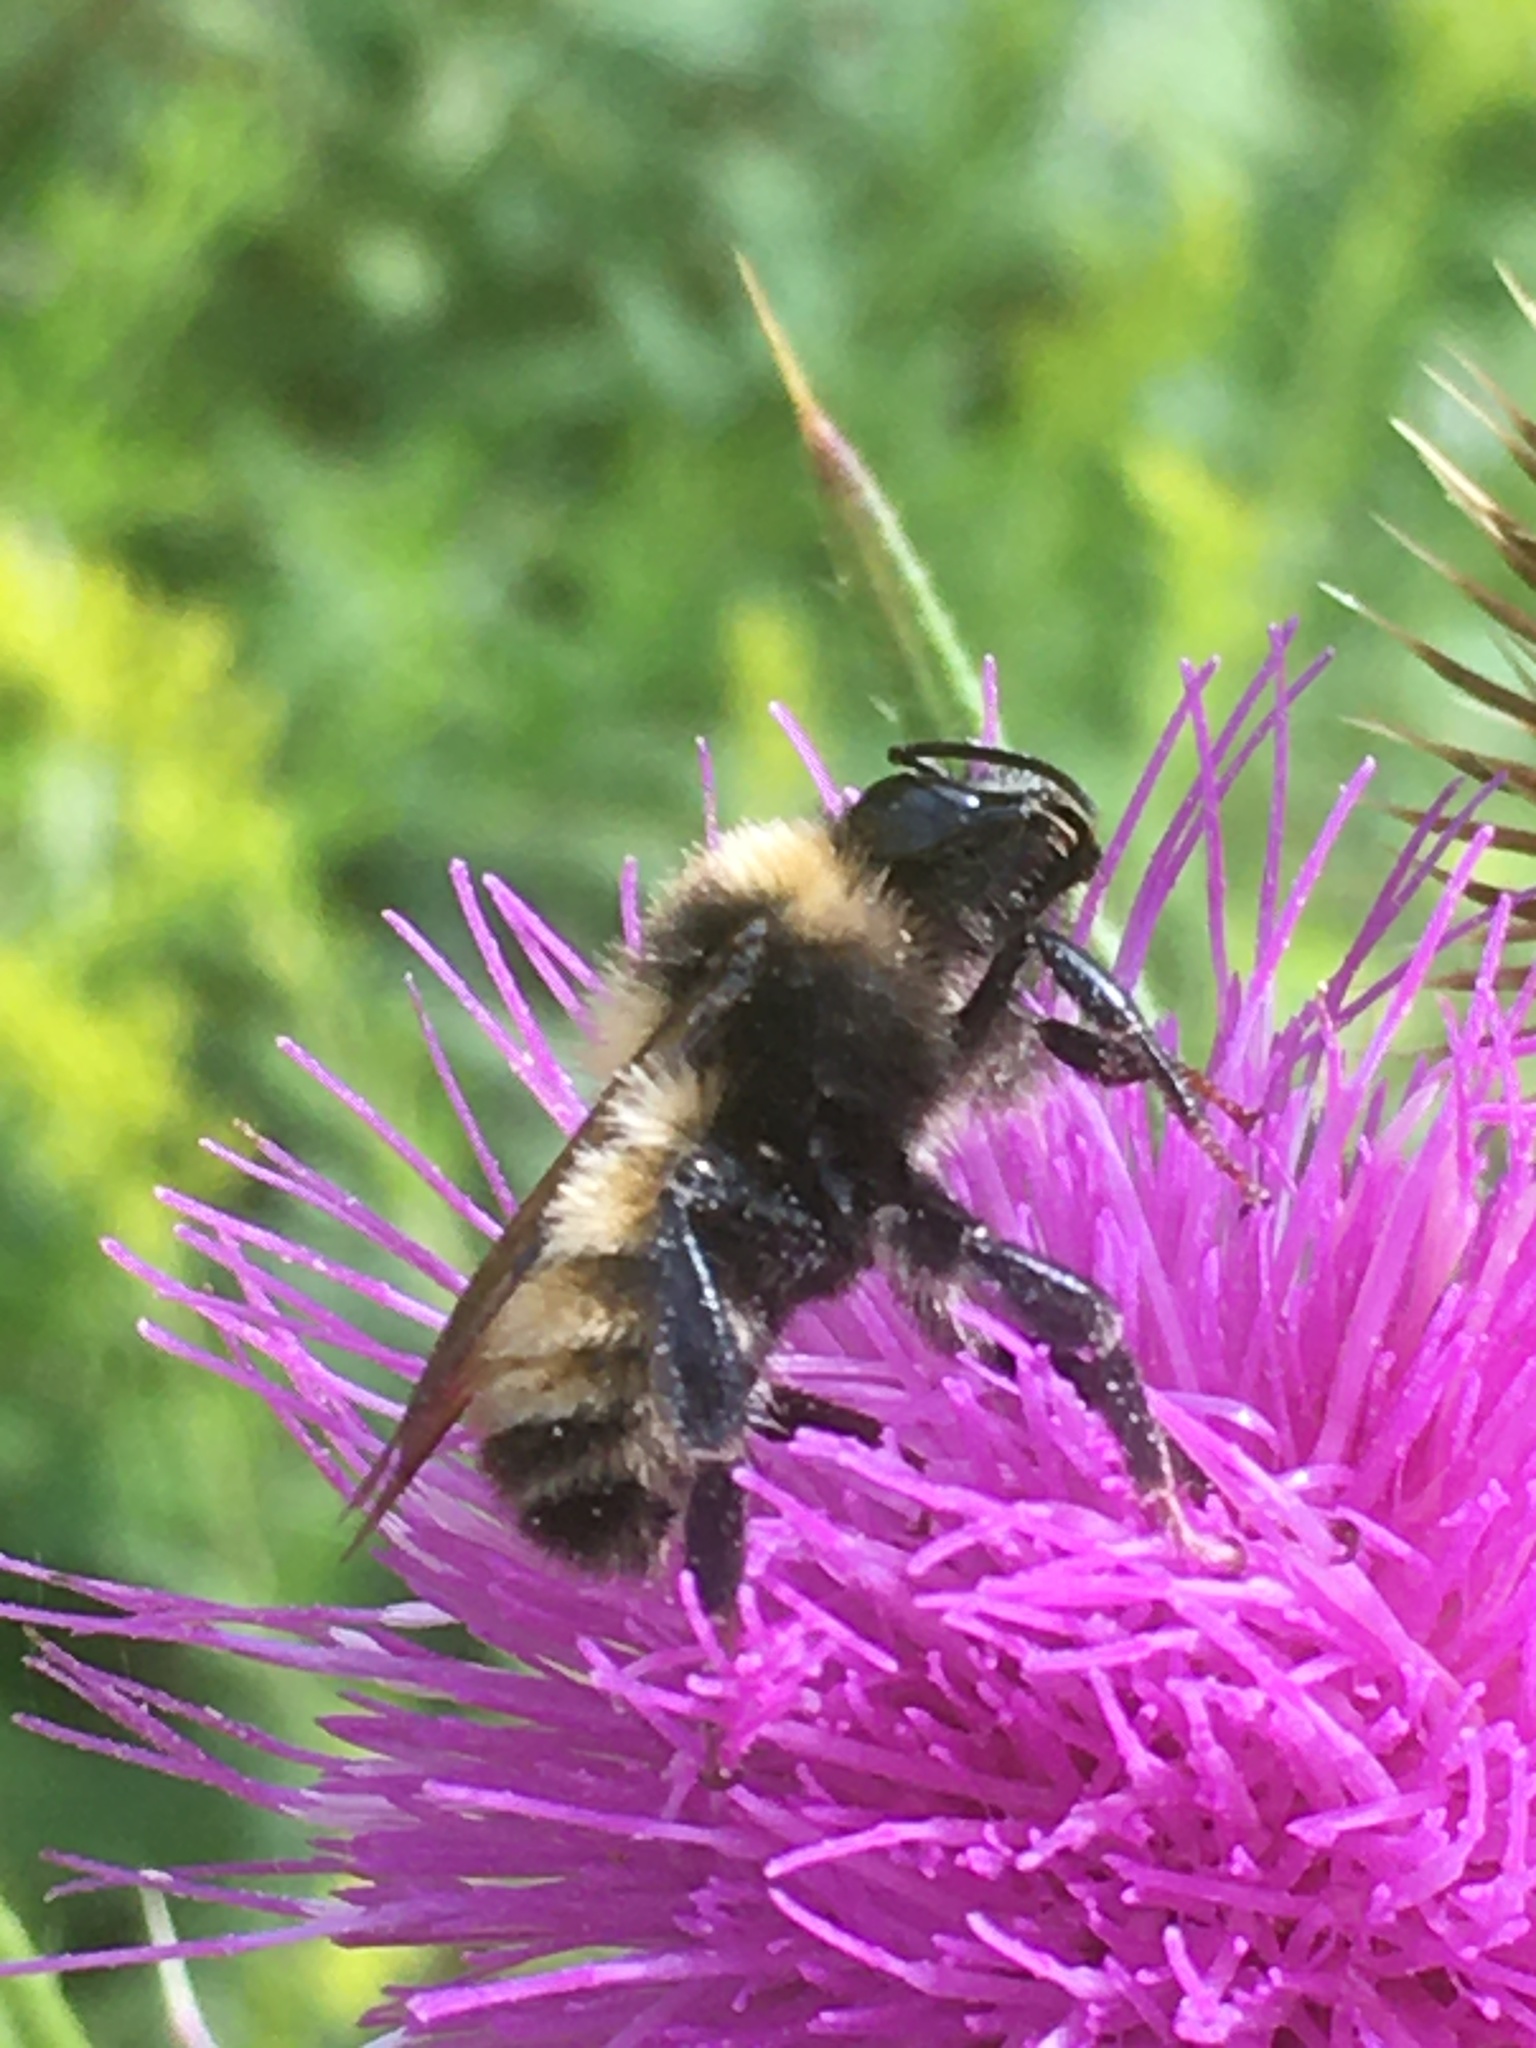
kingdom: Animalia
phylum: Arthropoda
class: Insecta
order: Hymenoptera
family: Apidae
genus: Bombus
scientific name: Bombus borealis
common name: Northern amber bumble bee
